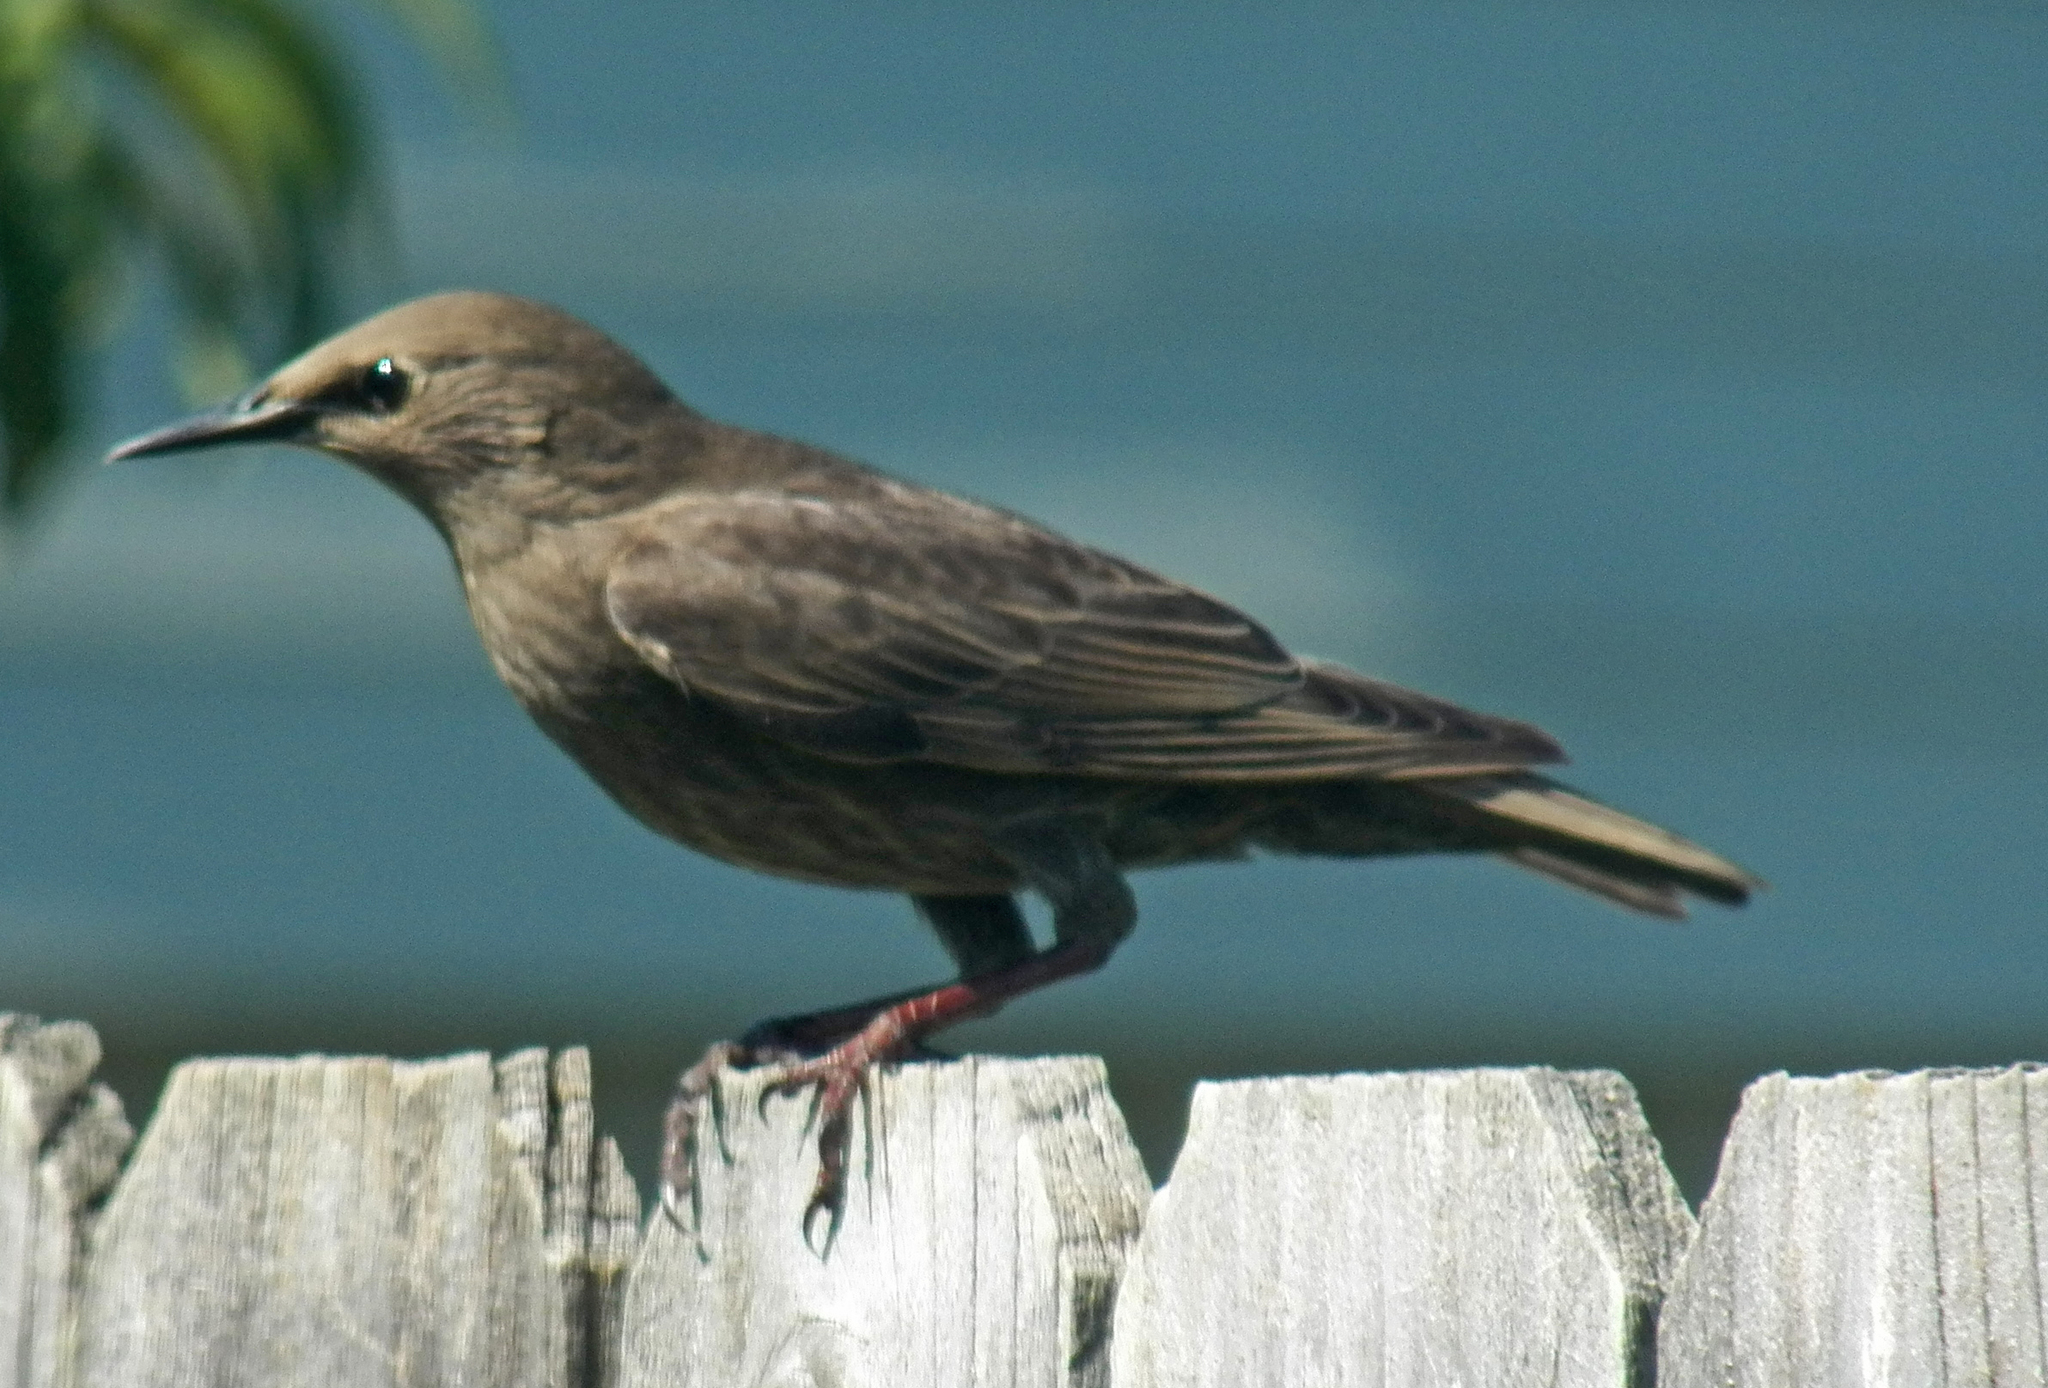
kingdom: Animalia
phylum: Chordata
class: Aves
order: Passeriformes
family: Sturnidae
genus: Sturnus
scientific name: Sturnus vulgaris
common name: Common starling
